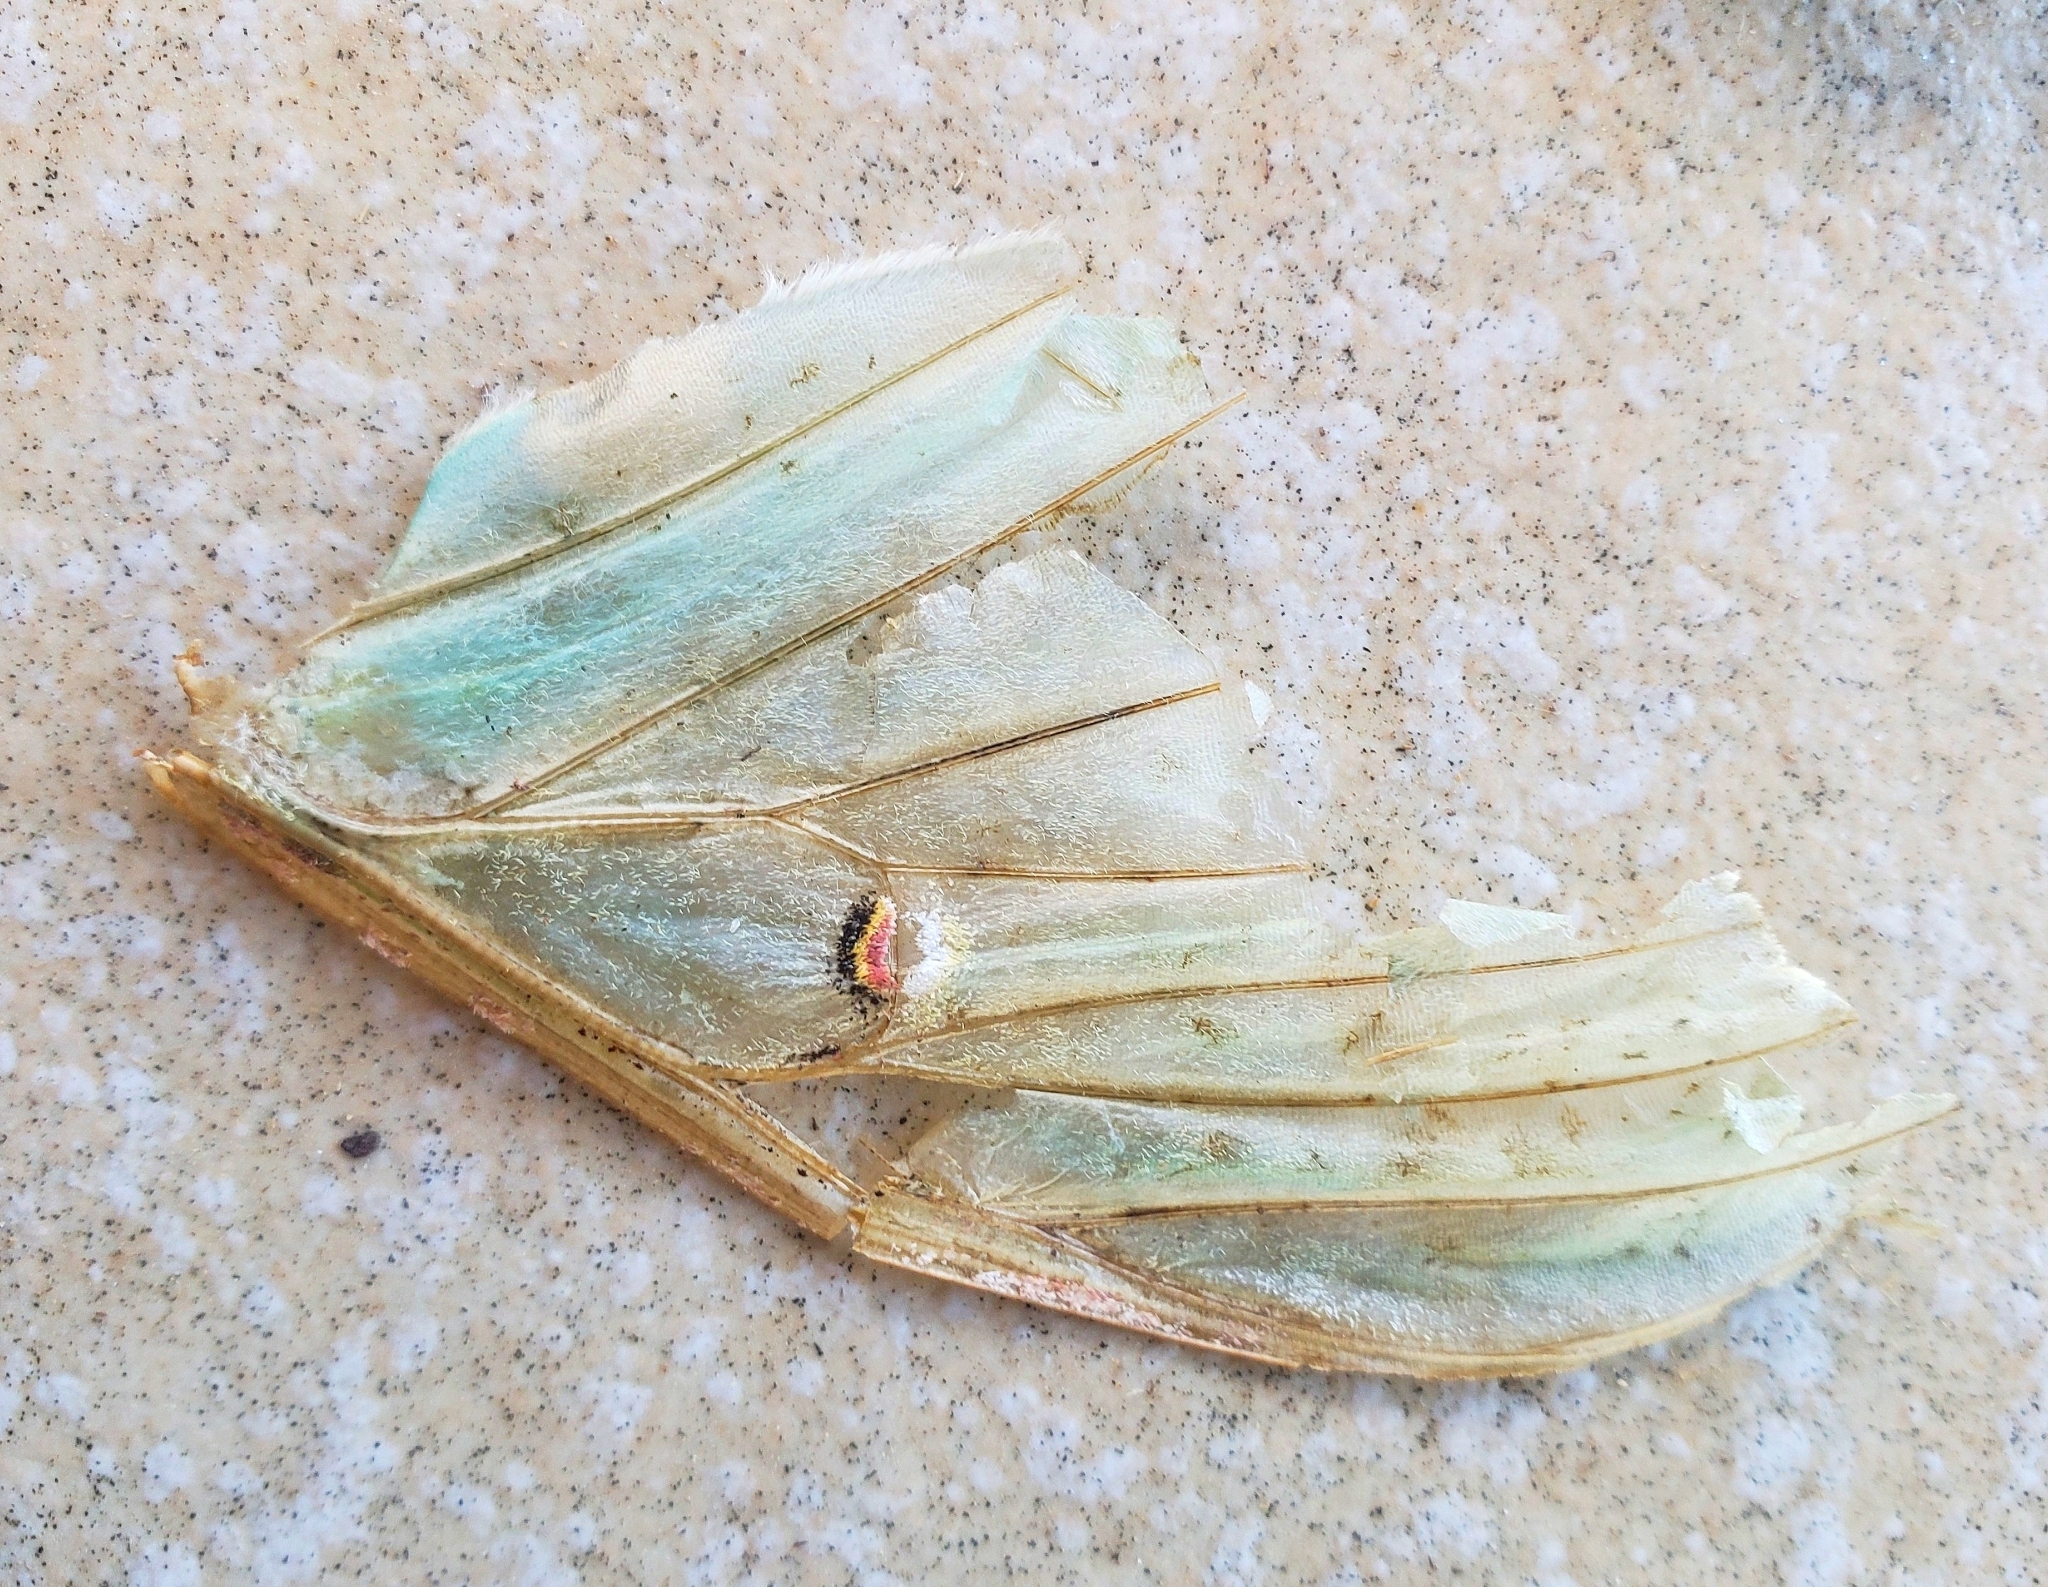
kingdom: Animalia
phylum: Arthropoda
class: Insecta
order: Lepidoptera
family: Saturniidae
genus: Actias
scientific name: Actias luna
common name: Luna moth
